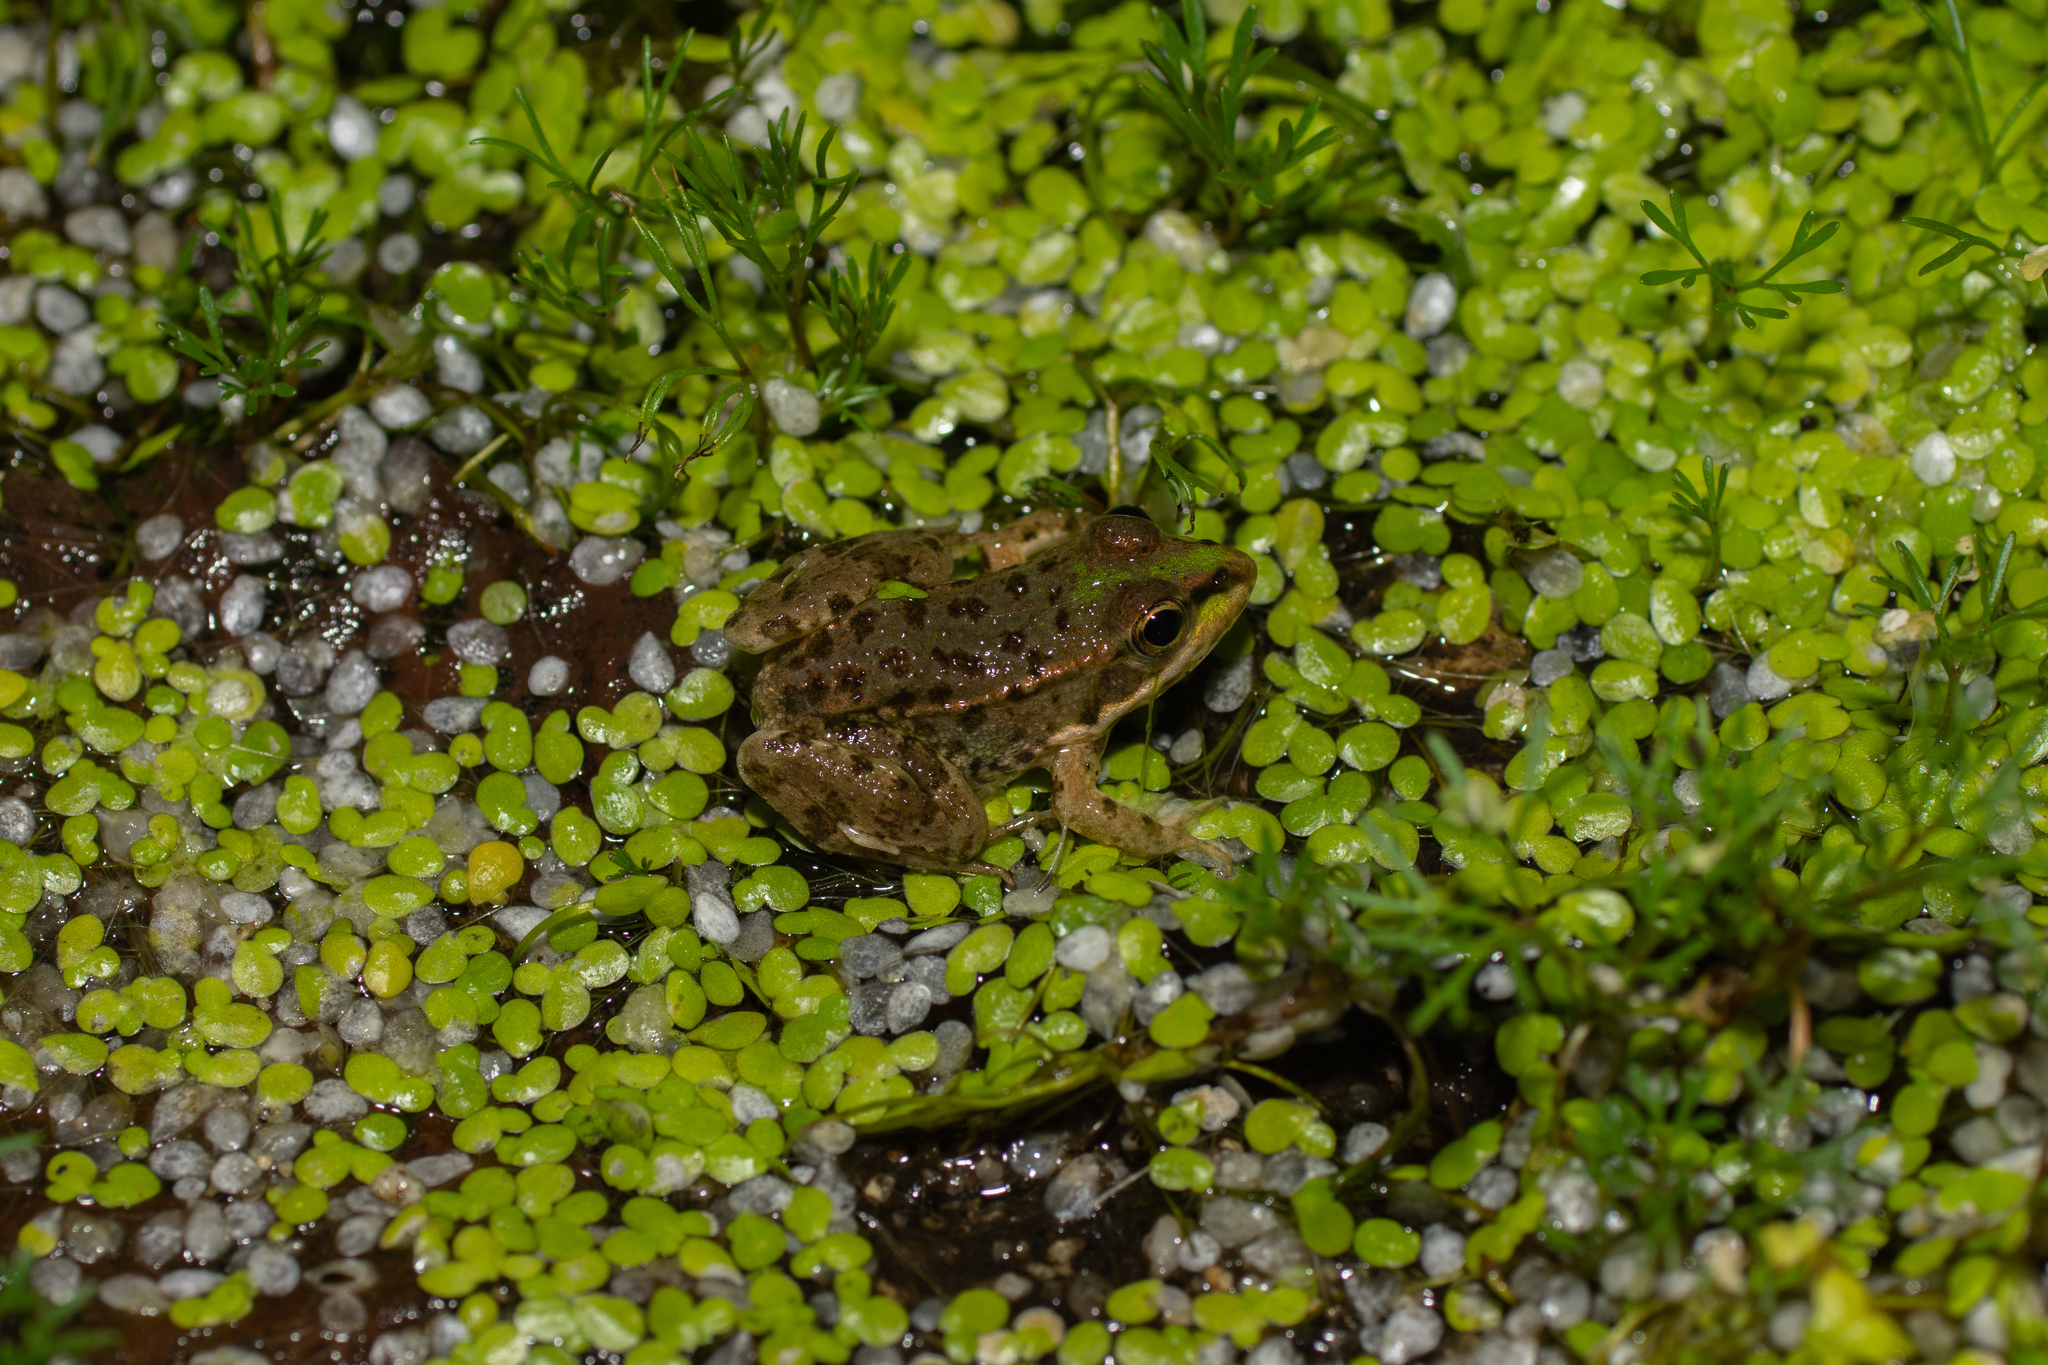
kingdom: Animalia
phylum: Chordata
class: Amphibia
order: Anura
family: Ranidae
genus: Pelophylax
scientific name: Pelophylax perezi
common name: Perez's frog
